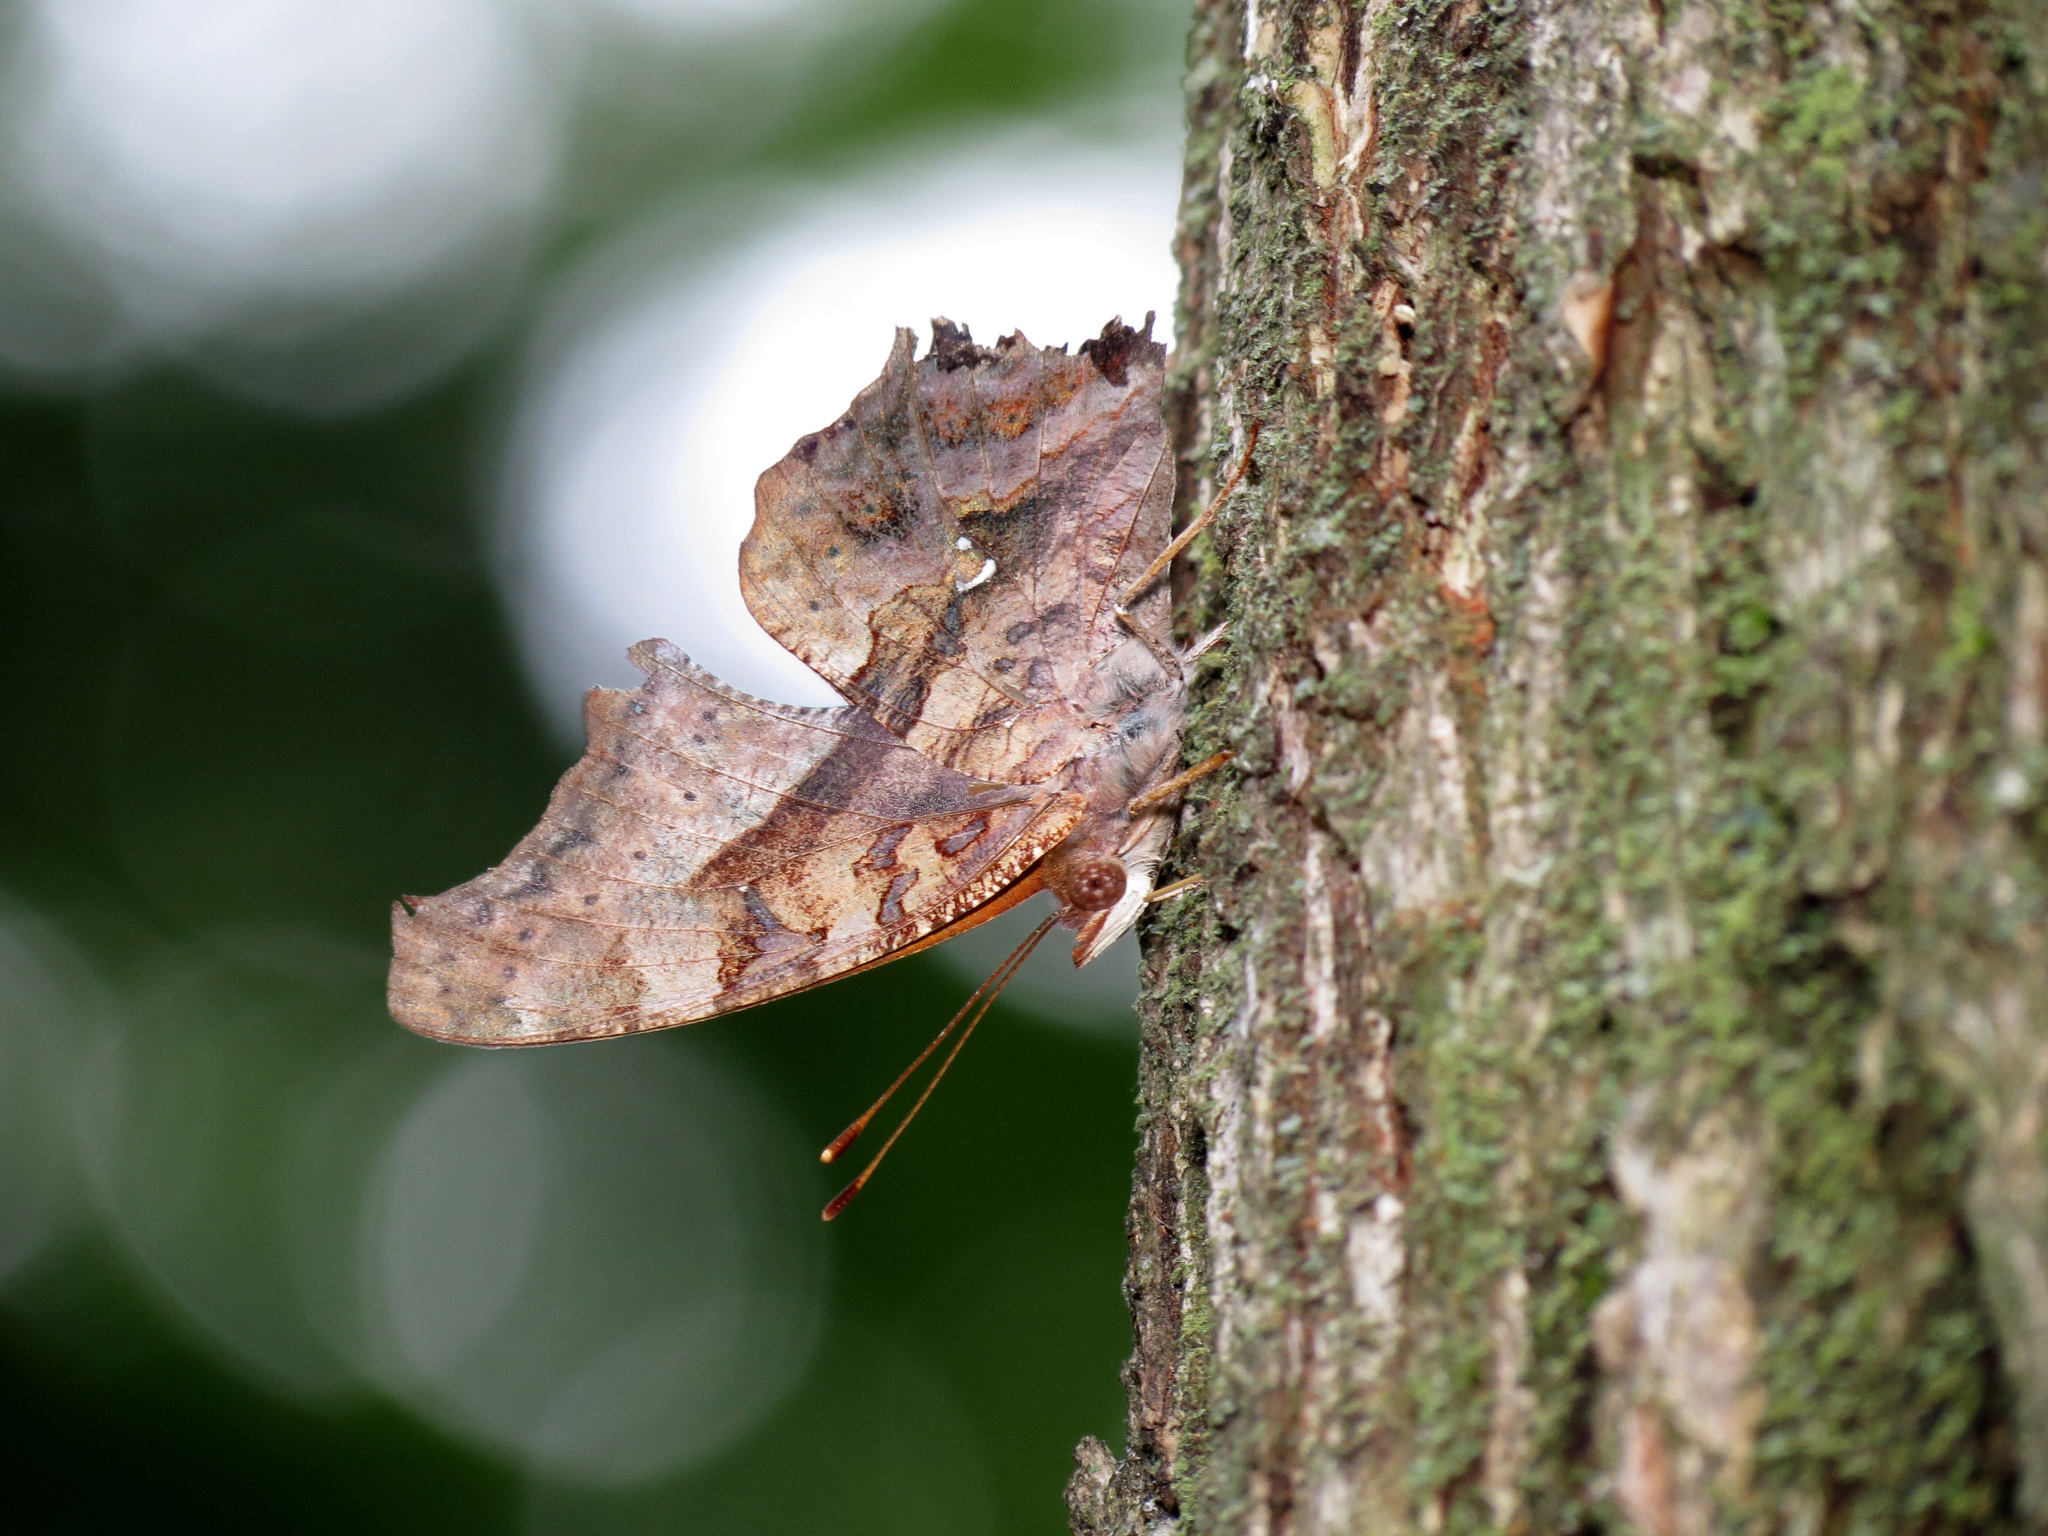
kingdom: Animalia
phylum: Arthropoda
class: Insecta
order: Lepidoptera
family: Nymphalidae
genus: Polygonia
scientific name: Polygonia interrogationis
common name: Question mark
